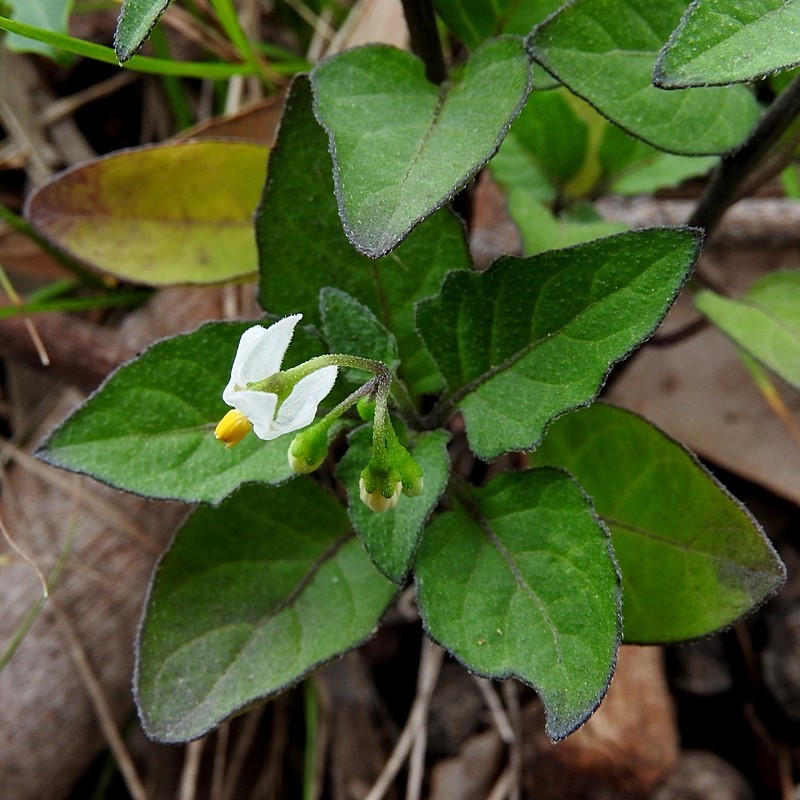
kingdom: Plantae
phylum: Tracheophyta
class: Magnoliopsida
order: Solanales
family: Solanaceae
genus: Solanum
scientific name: Solanum chenopodioides
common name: Tall nightshade
